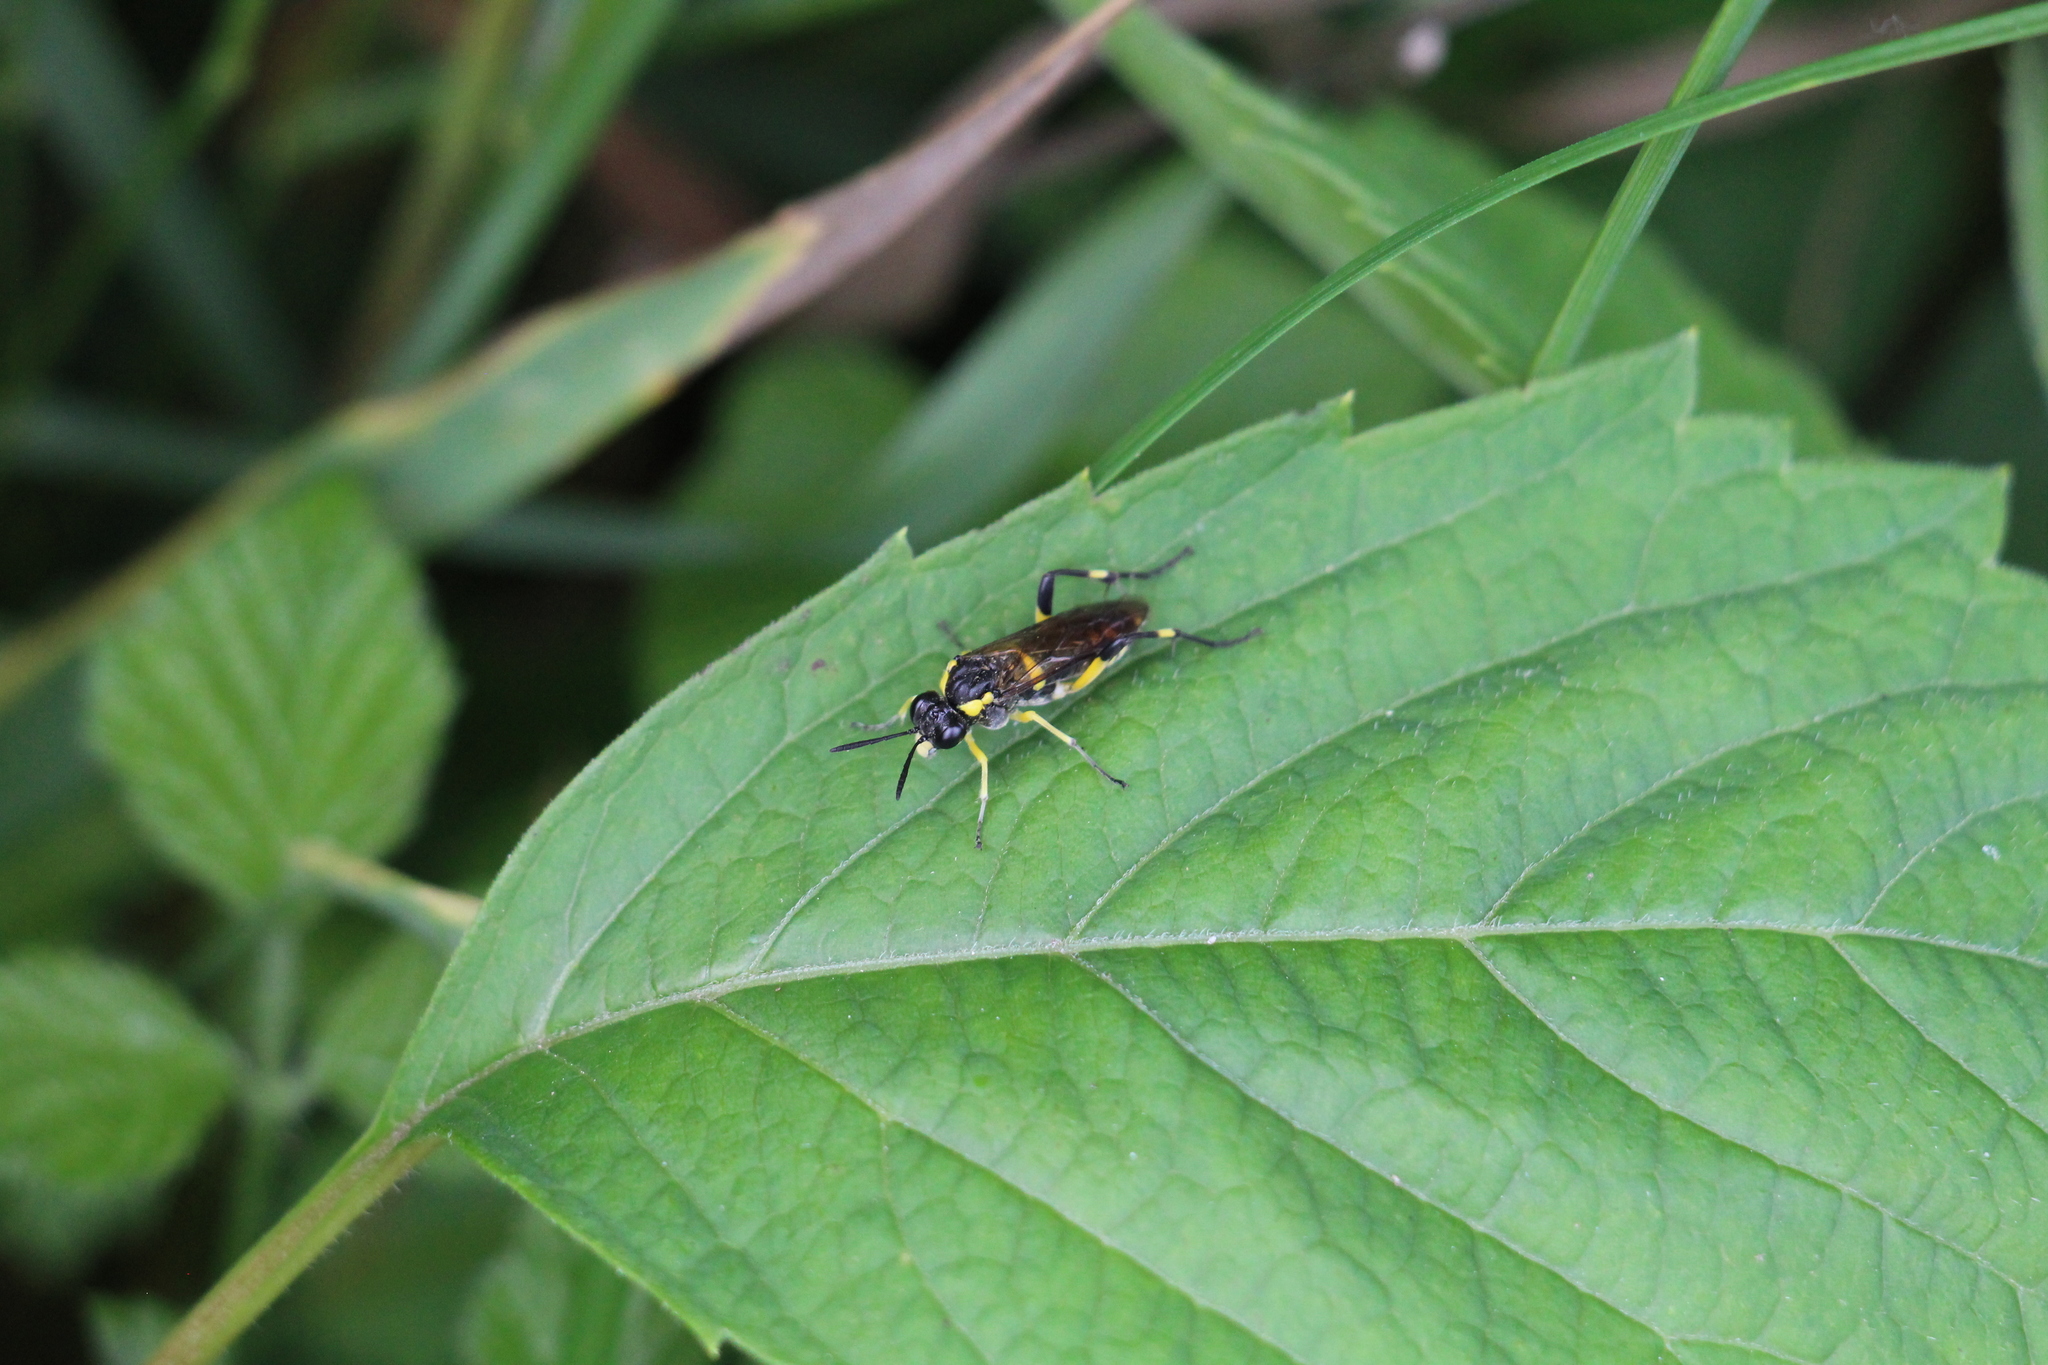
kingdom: Animalia
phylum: Arthropoda
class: Insecta
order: Hymenoptera
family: Tenthredinidae
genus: Macrophya
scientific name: Macrophya montana
